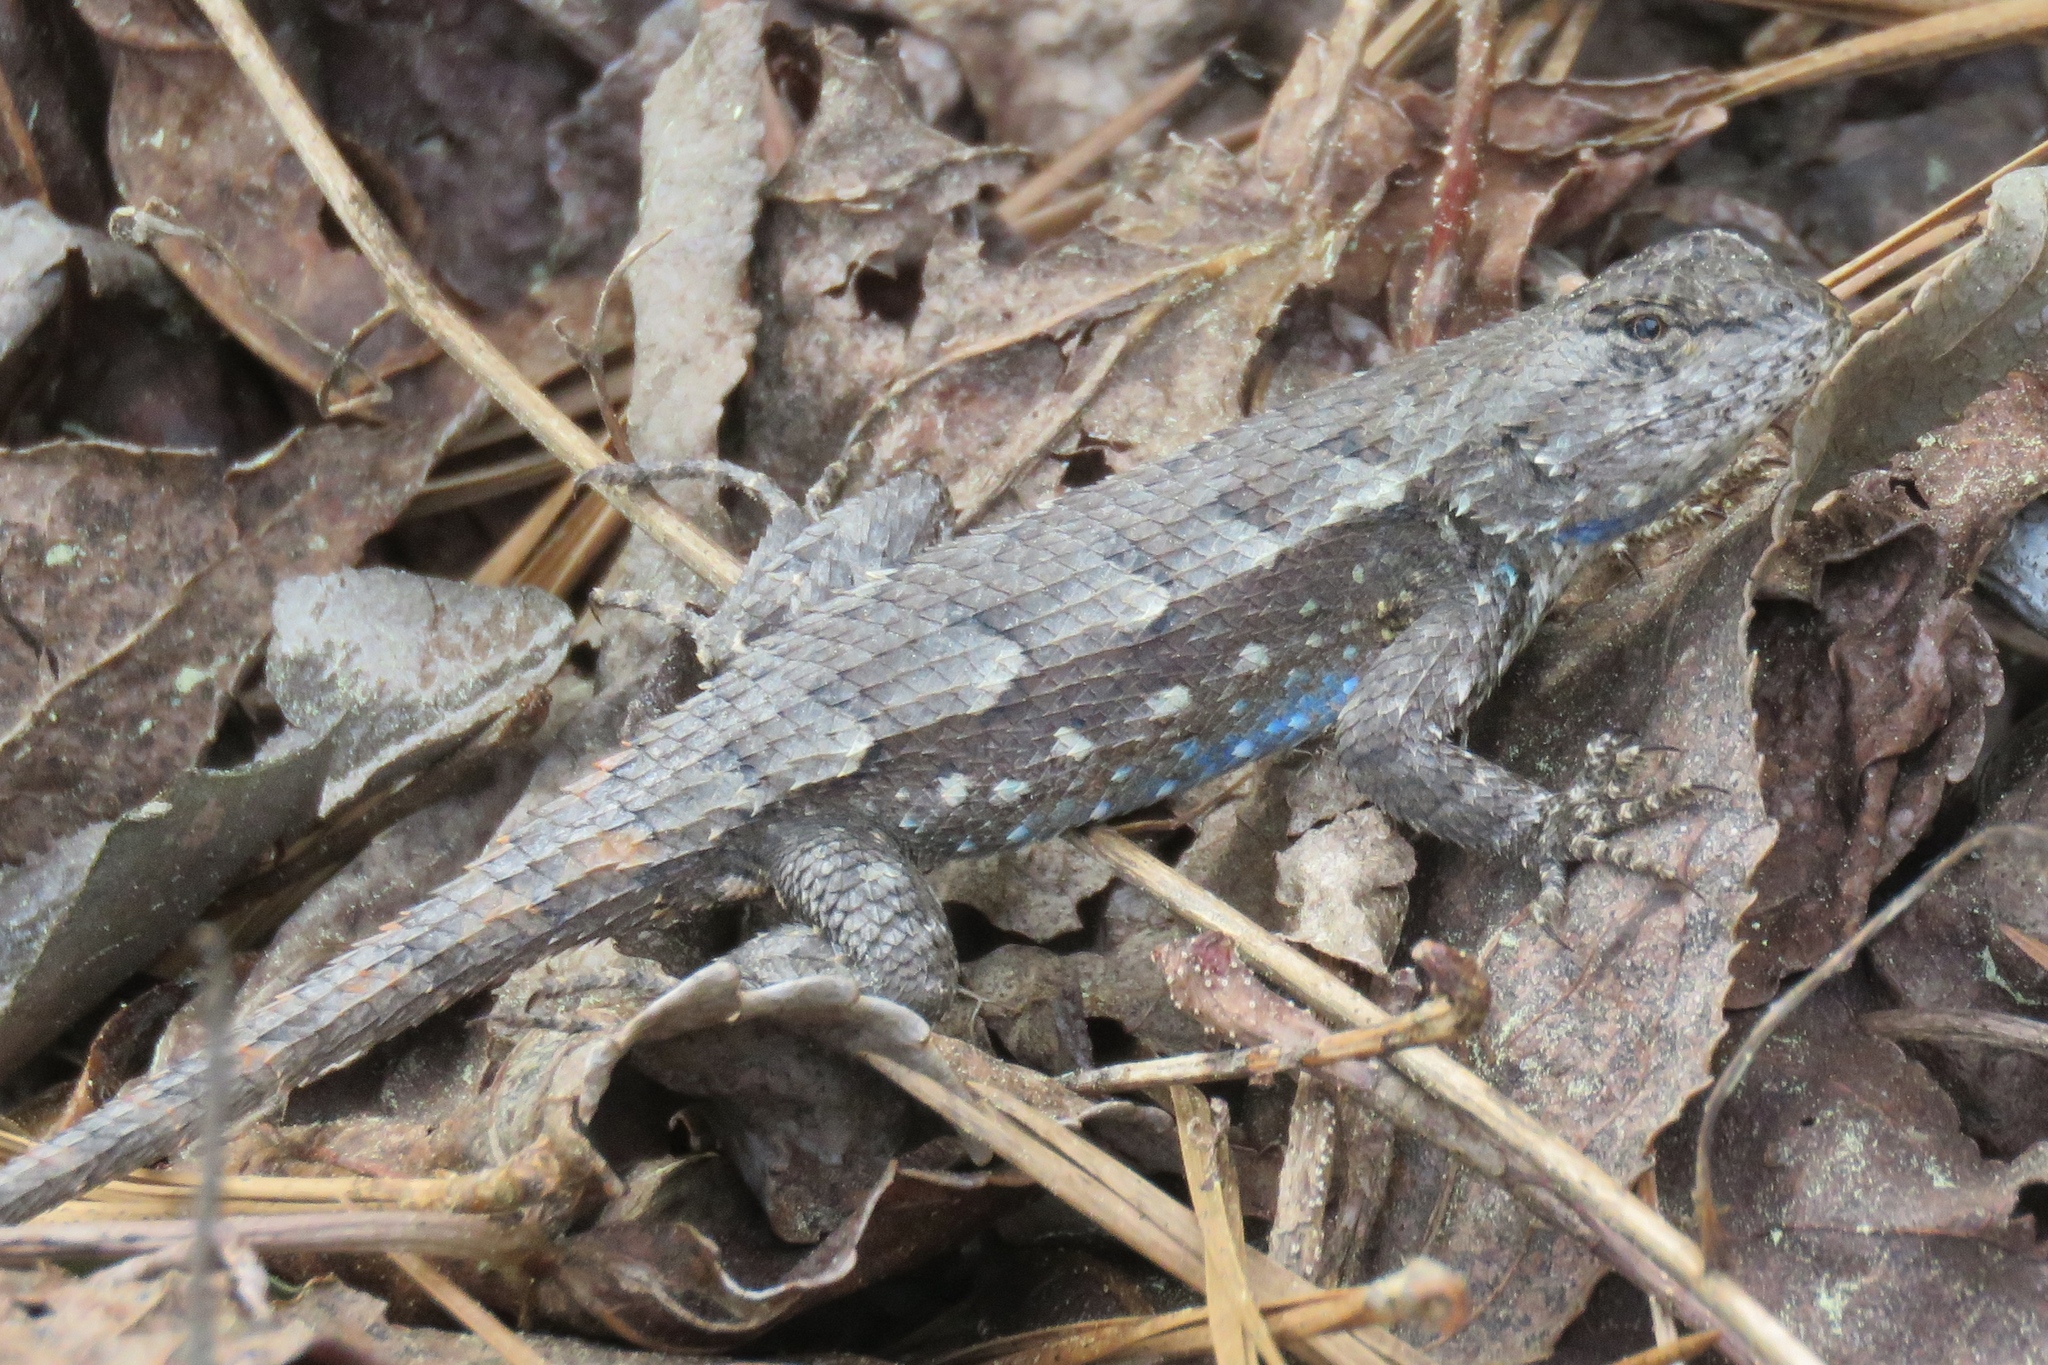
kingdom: Animalia
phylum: Chordata
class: Squamata
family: Phrynosomatidae
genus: Sceloporus
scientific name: Sceloporus consobrinus
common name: Southern prairie lizard
